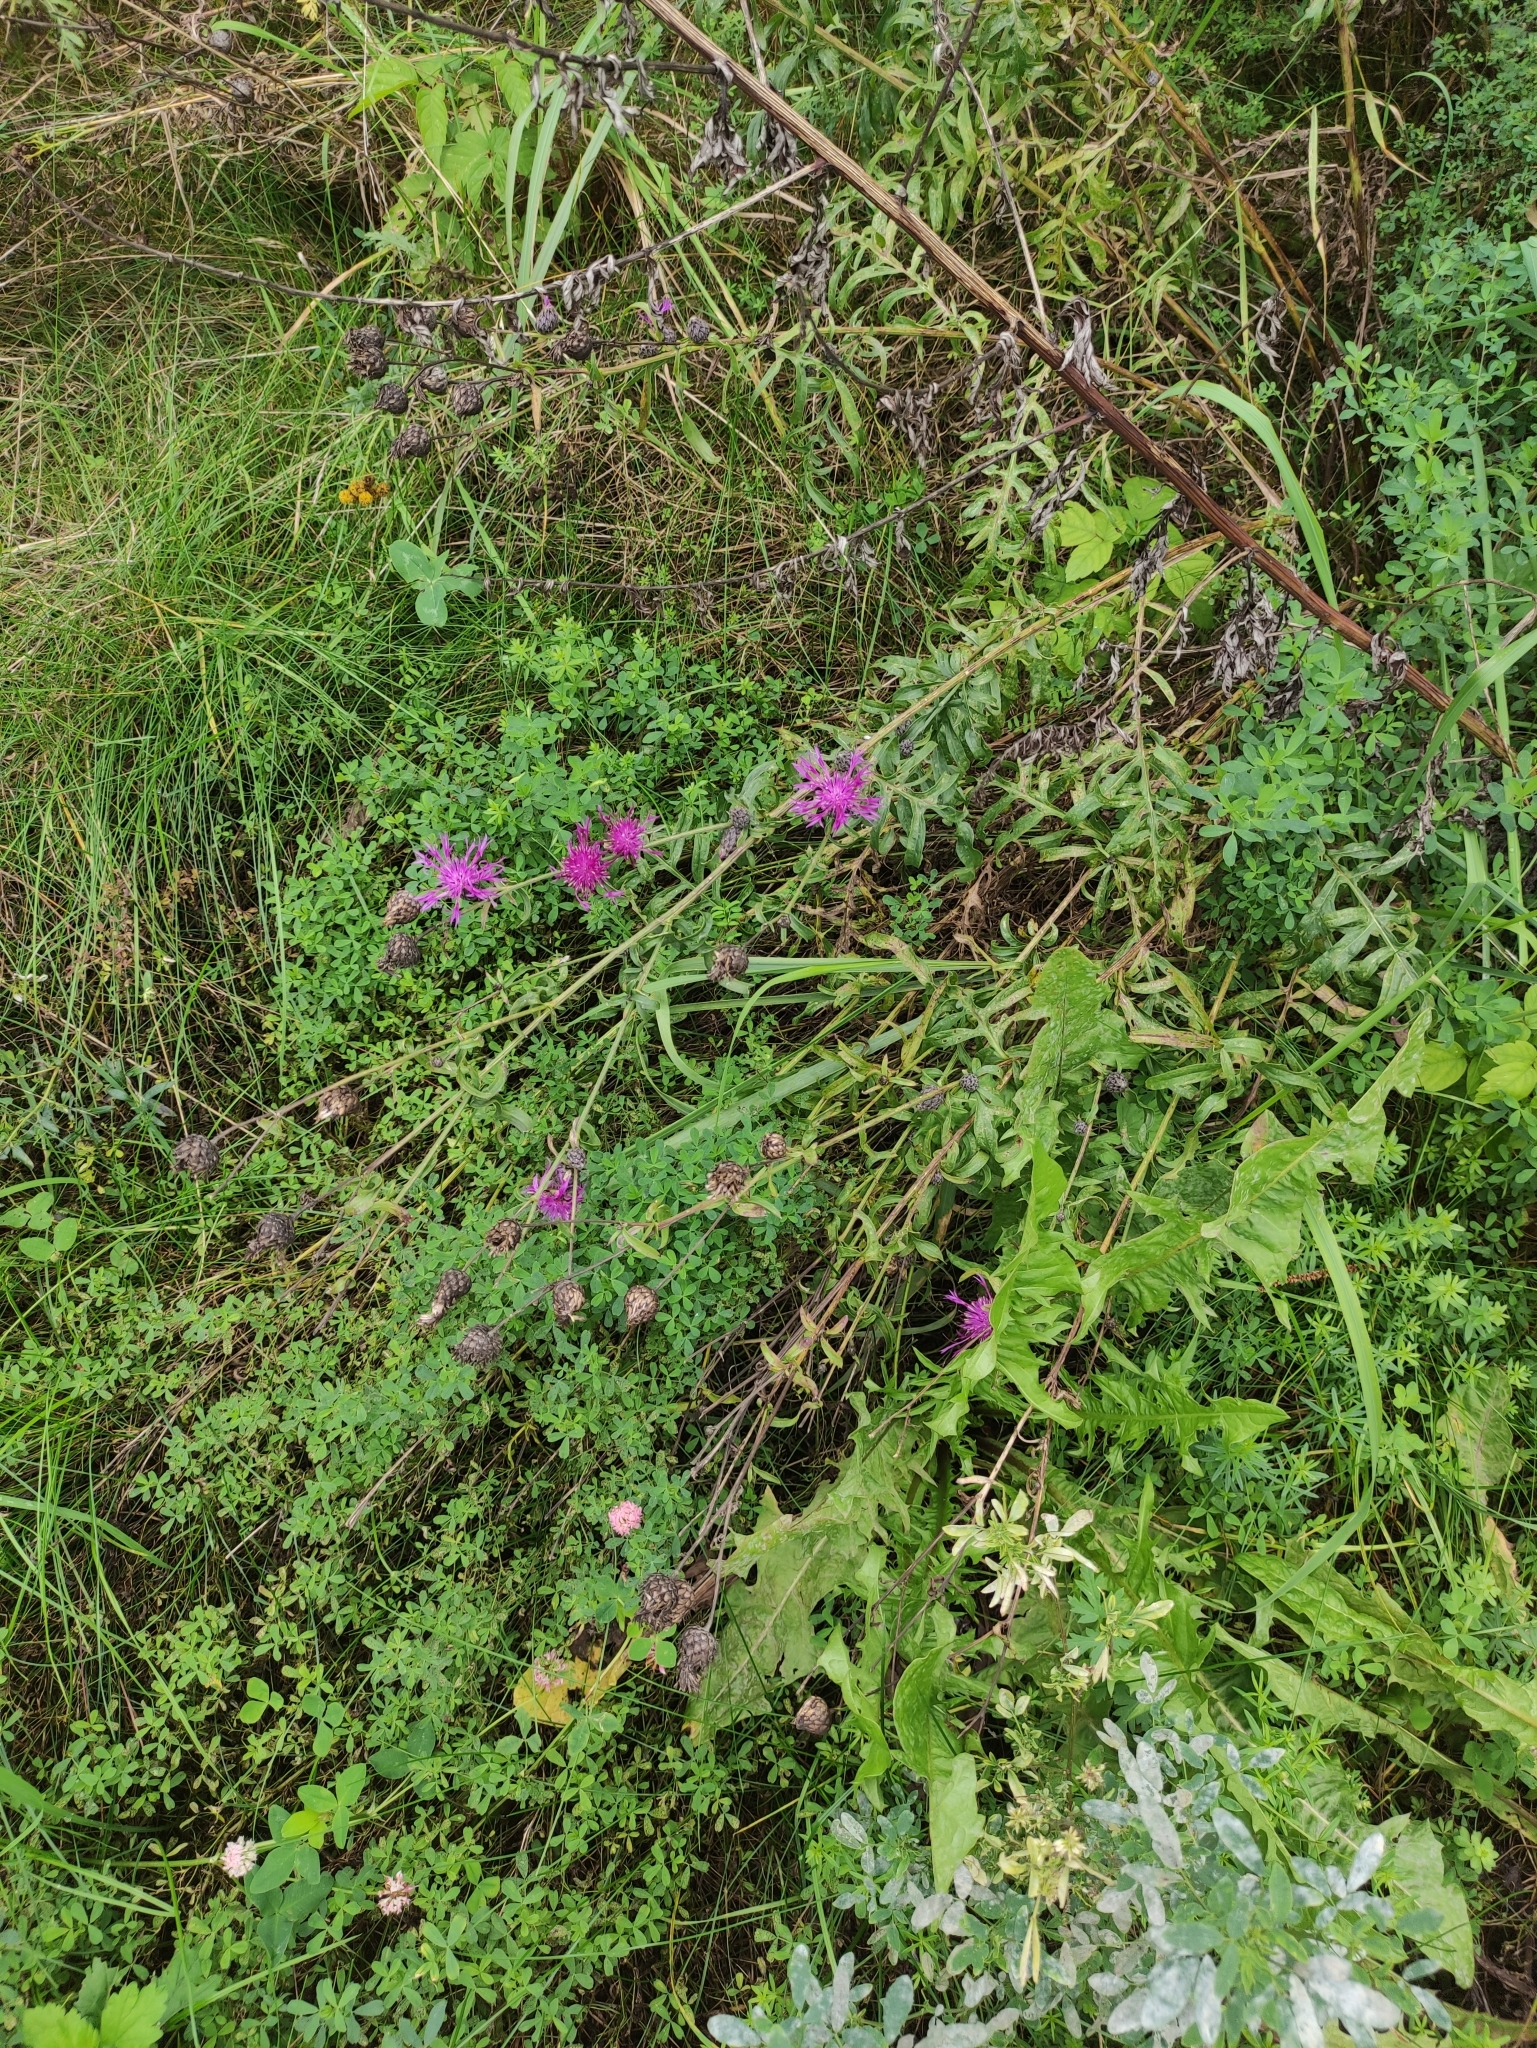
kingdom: Plantae
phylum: Tracheophyta
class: Magnoliopsida
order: Asterales
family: Asteraceae
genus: Centaurea
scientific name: Centaurea scabiosa
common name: Greater knapweed
